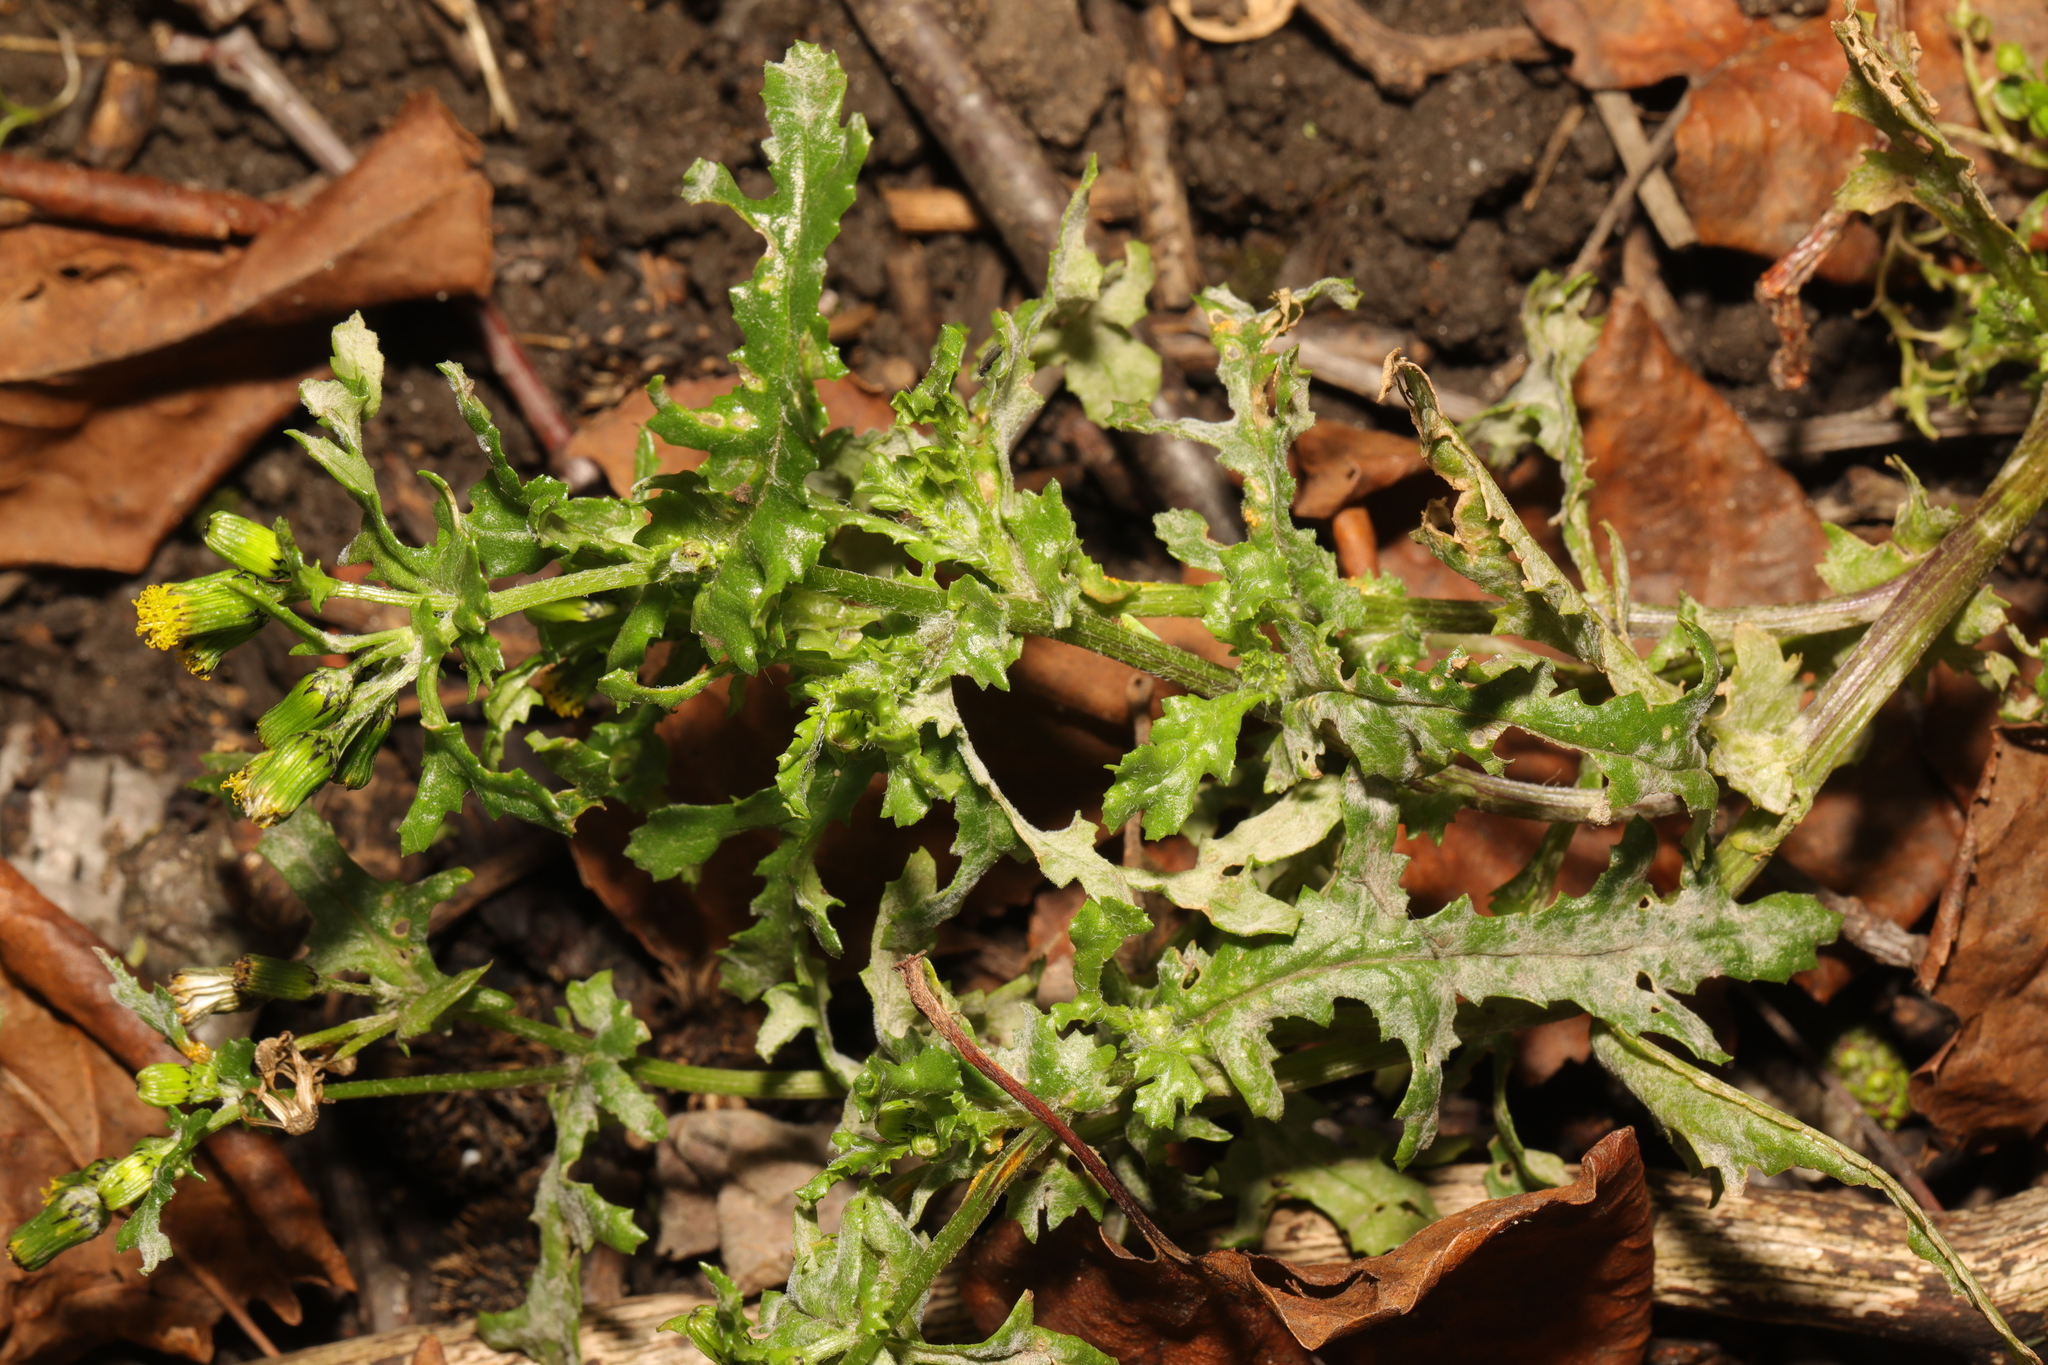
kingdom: Plantae
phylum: Tracheophyta
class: Magnoliopsida
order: Asterales
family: Asteraceae
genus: Senecio
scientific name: Senecio vulgaris
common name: Old-man-in-the-spring
